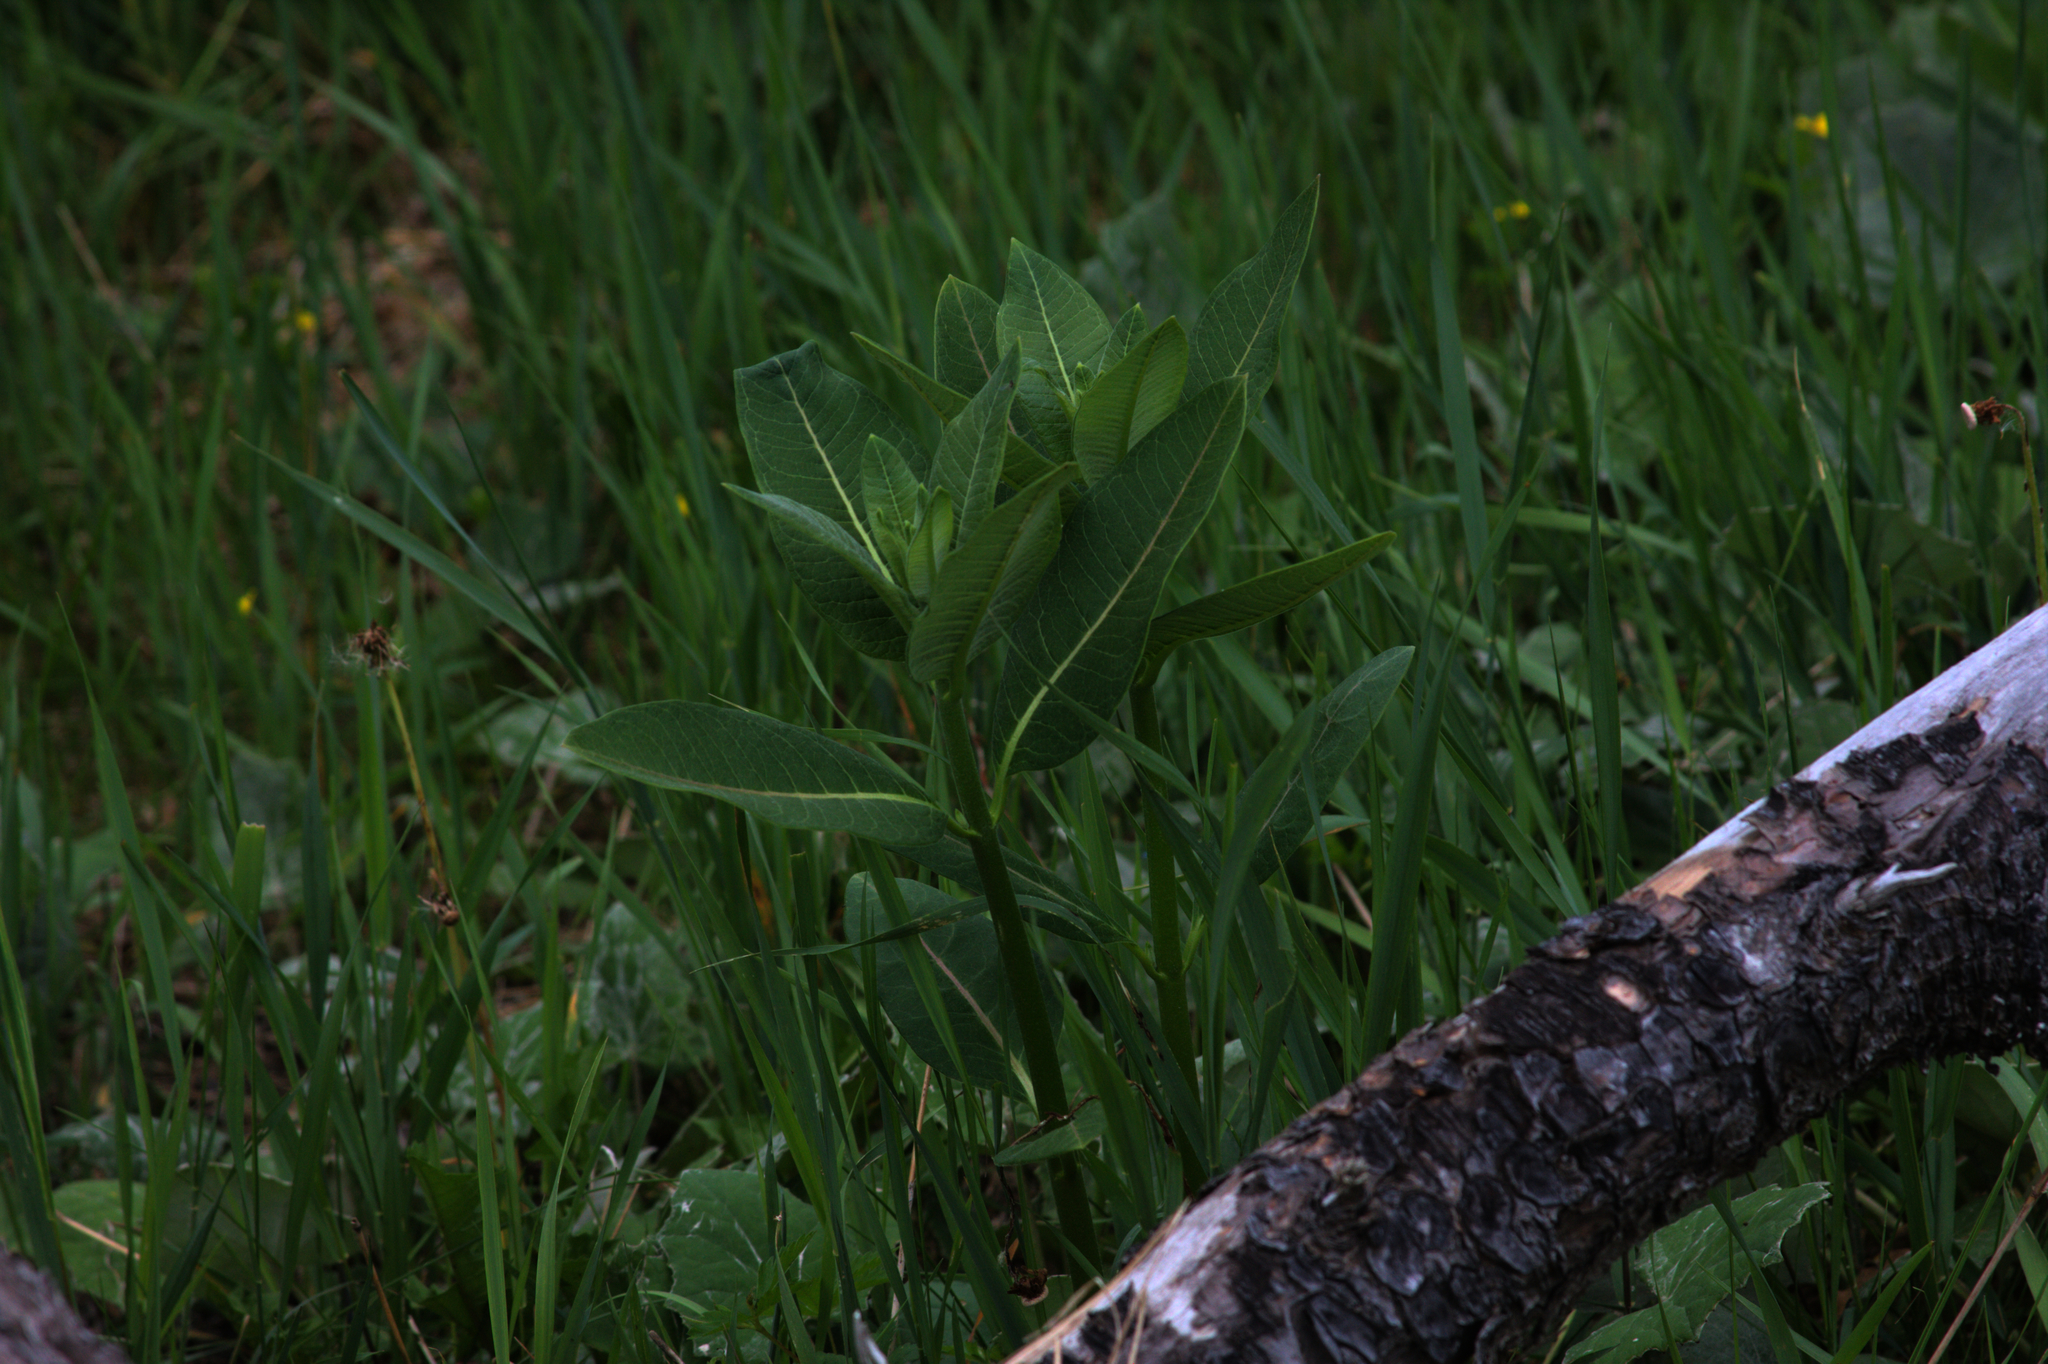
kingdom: Plantae
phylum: Tracheophyta
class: Magnoliopsida
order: Gentianales
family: Apocynaceae
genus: Asclepias
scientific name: Asclepias syriaca
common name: Common milkweed
